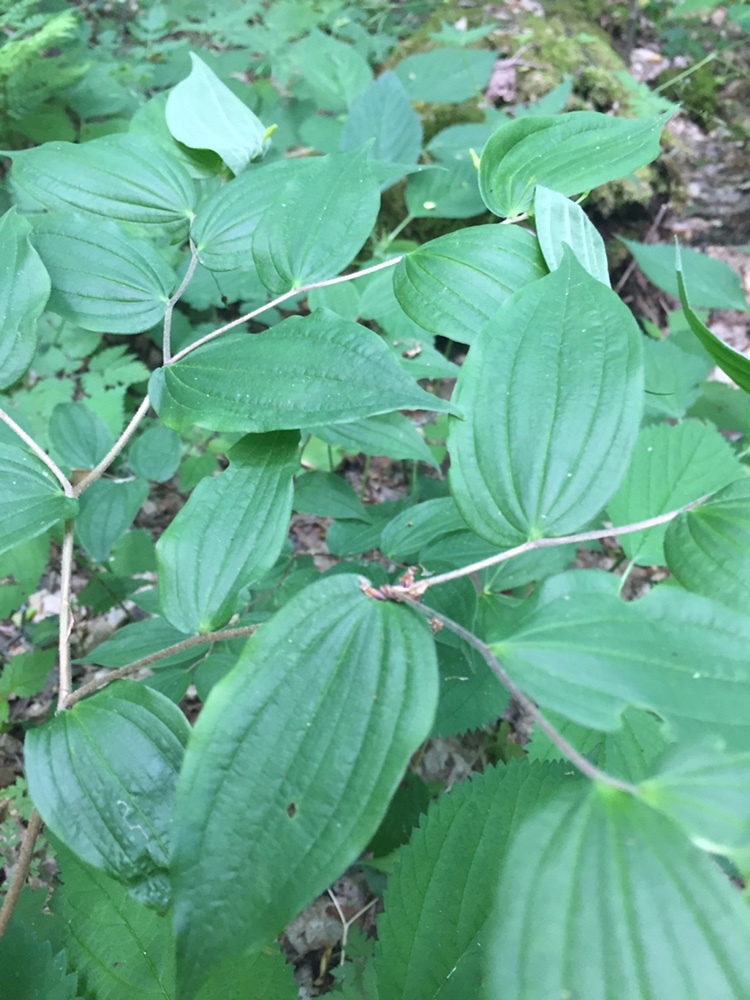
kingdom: Plantae
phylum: Tracheophyta
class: Liliopsida
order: Liliales
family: Liliaceae
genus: Prosartes
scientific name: Prosartes lanuginosa
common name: Hairy mandarin
